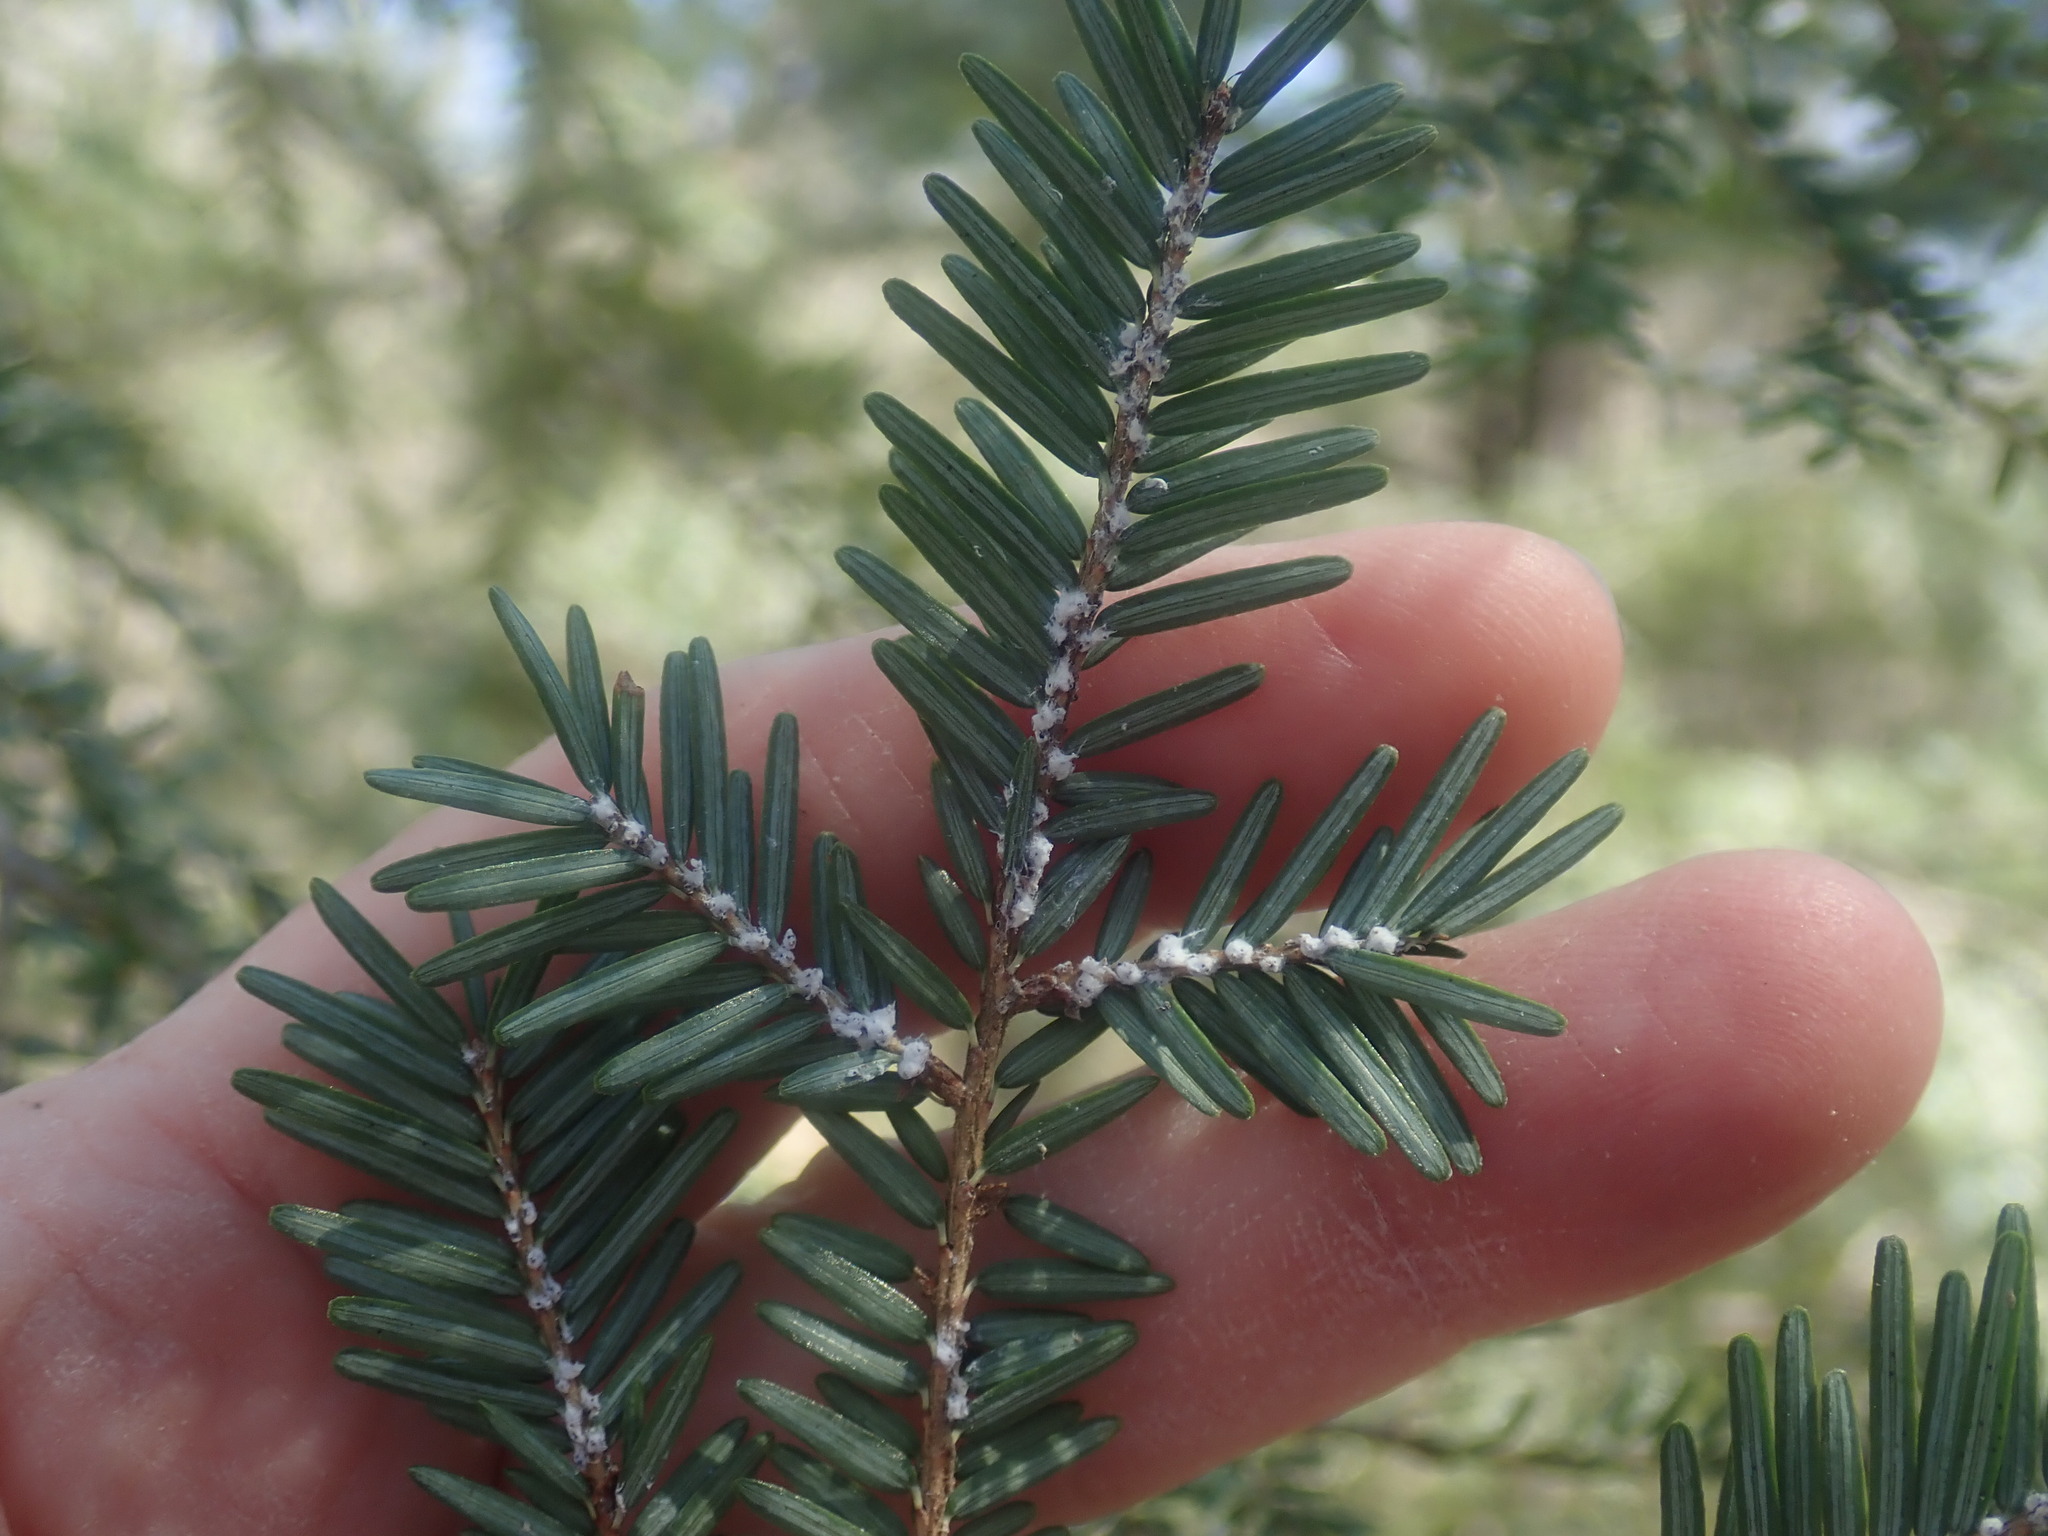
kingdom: Animalia
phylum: Arthropoda
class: Insecta
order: Hemiptera
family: Adelgidae
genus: Adelges
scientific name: Adelges tsugae
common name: Hemlock woolly adelgid
